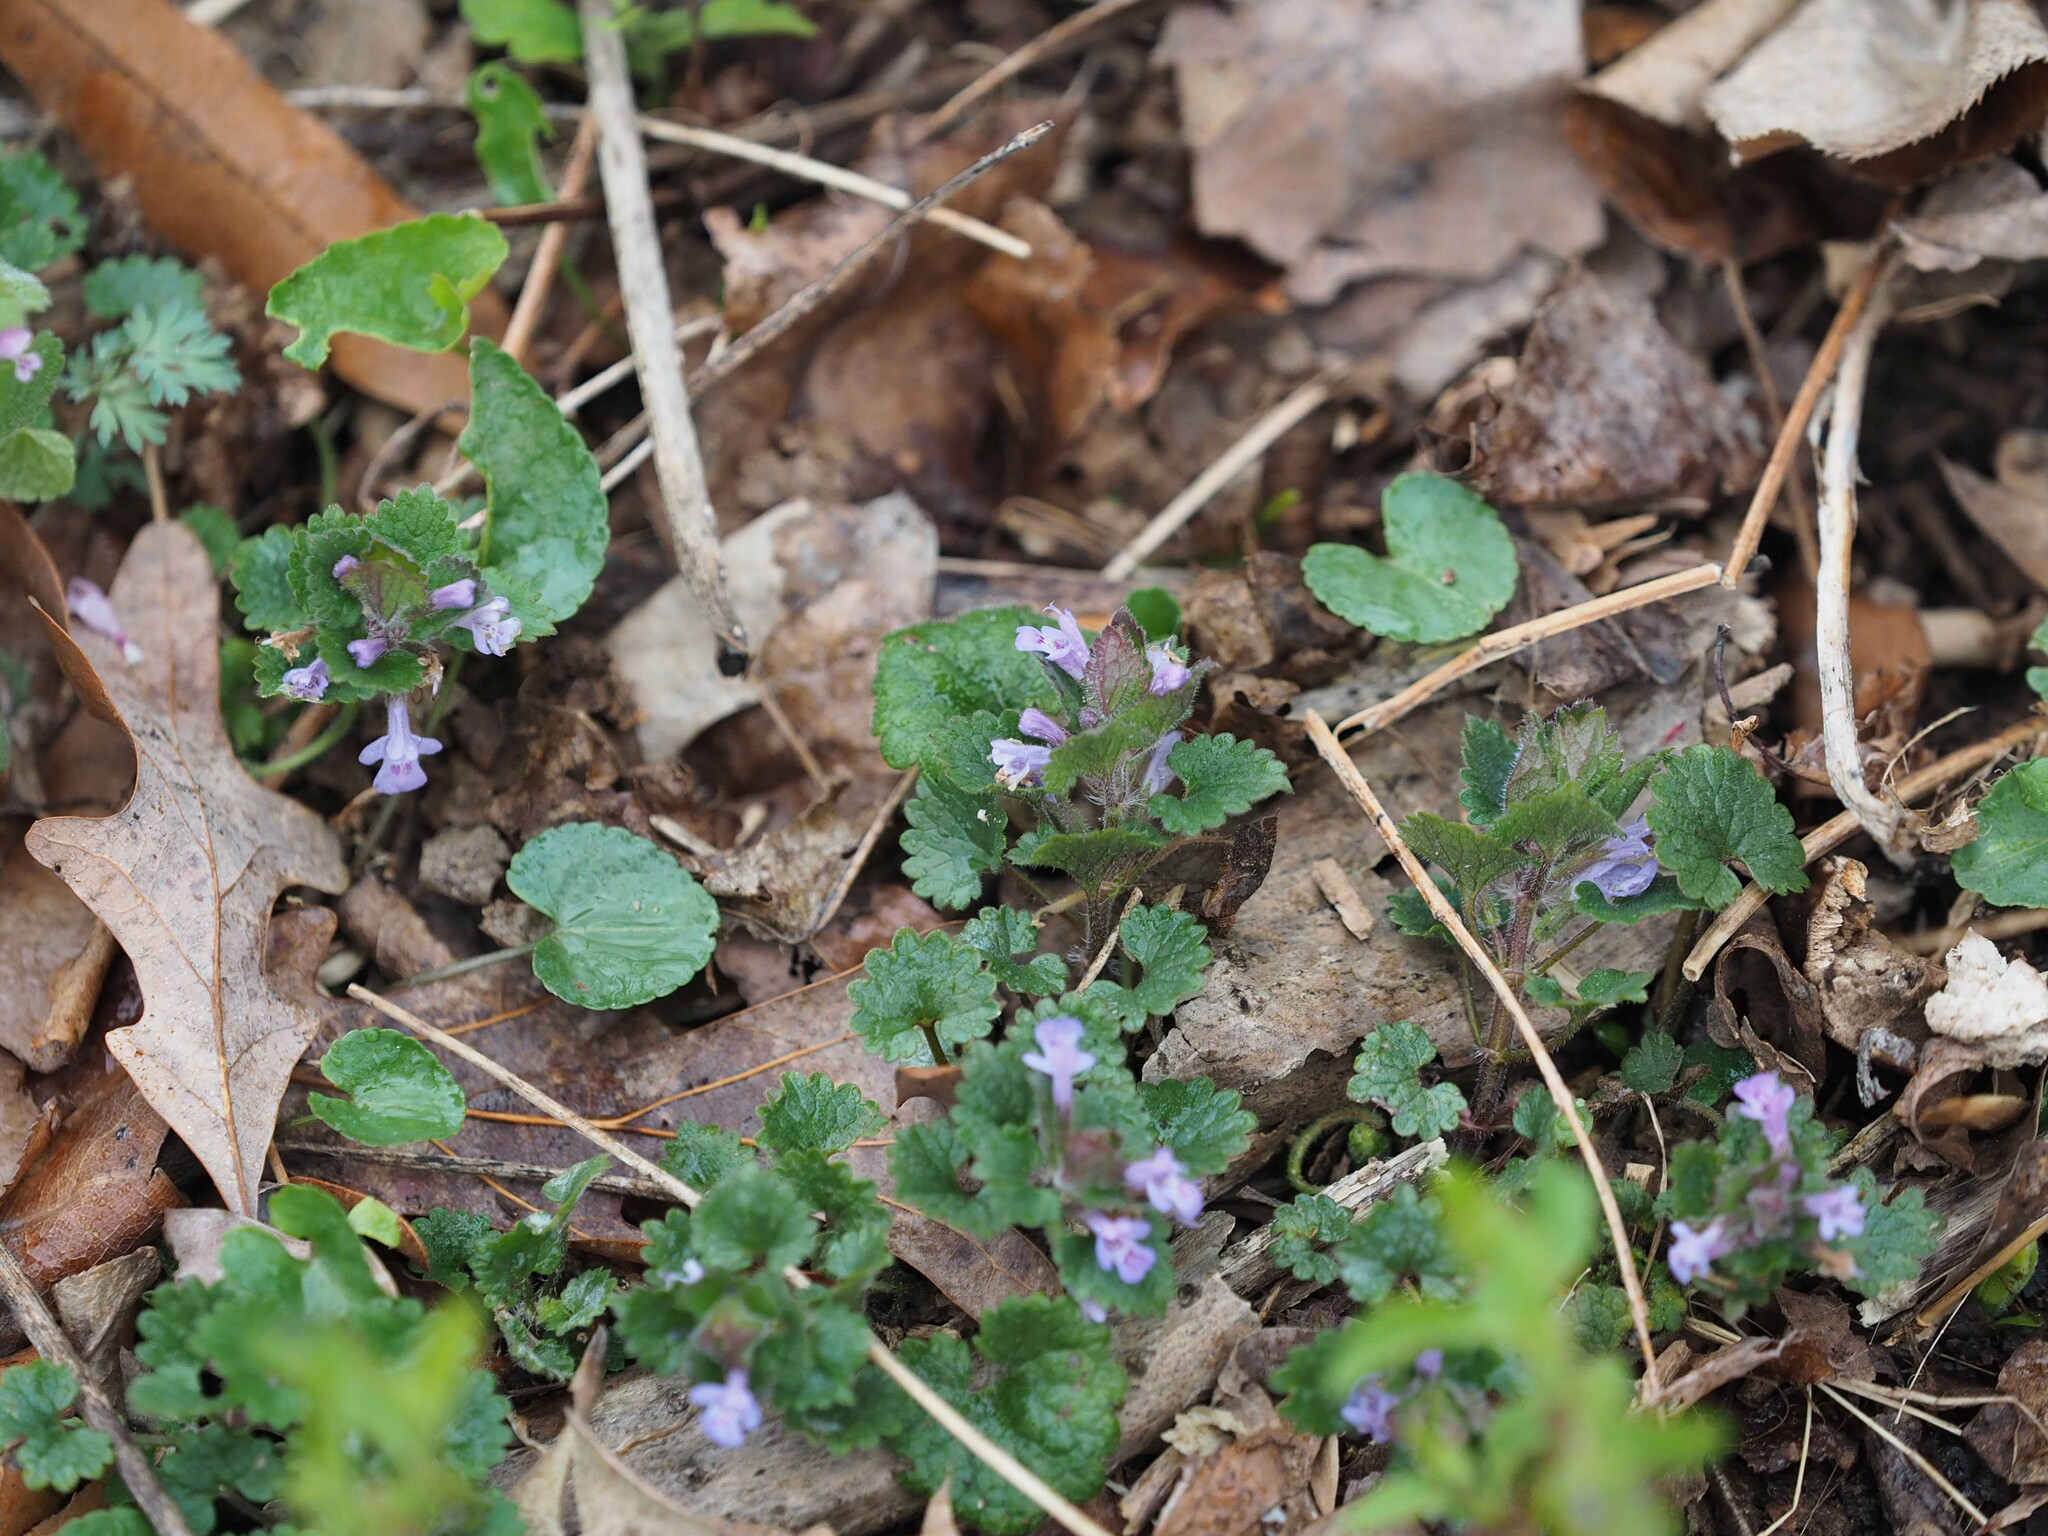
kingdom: Plantae
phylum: Tracheophyta
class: Magnoliopsida
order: Lamiales
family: Lamiaceae
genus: Glechoma
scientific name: Glechoma hederacea
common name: Ground ivy
